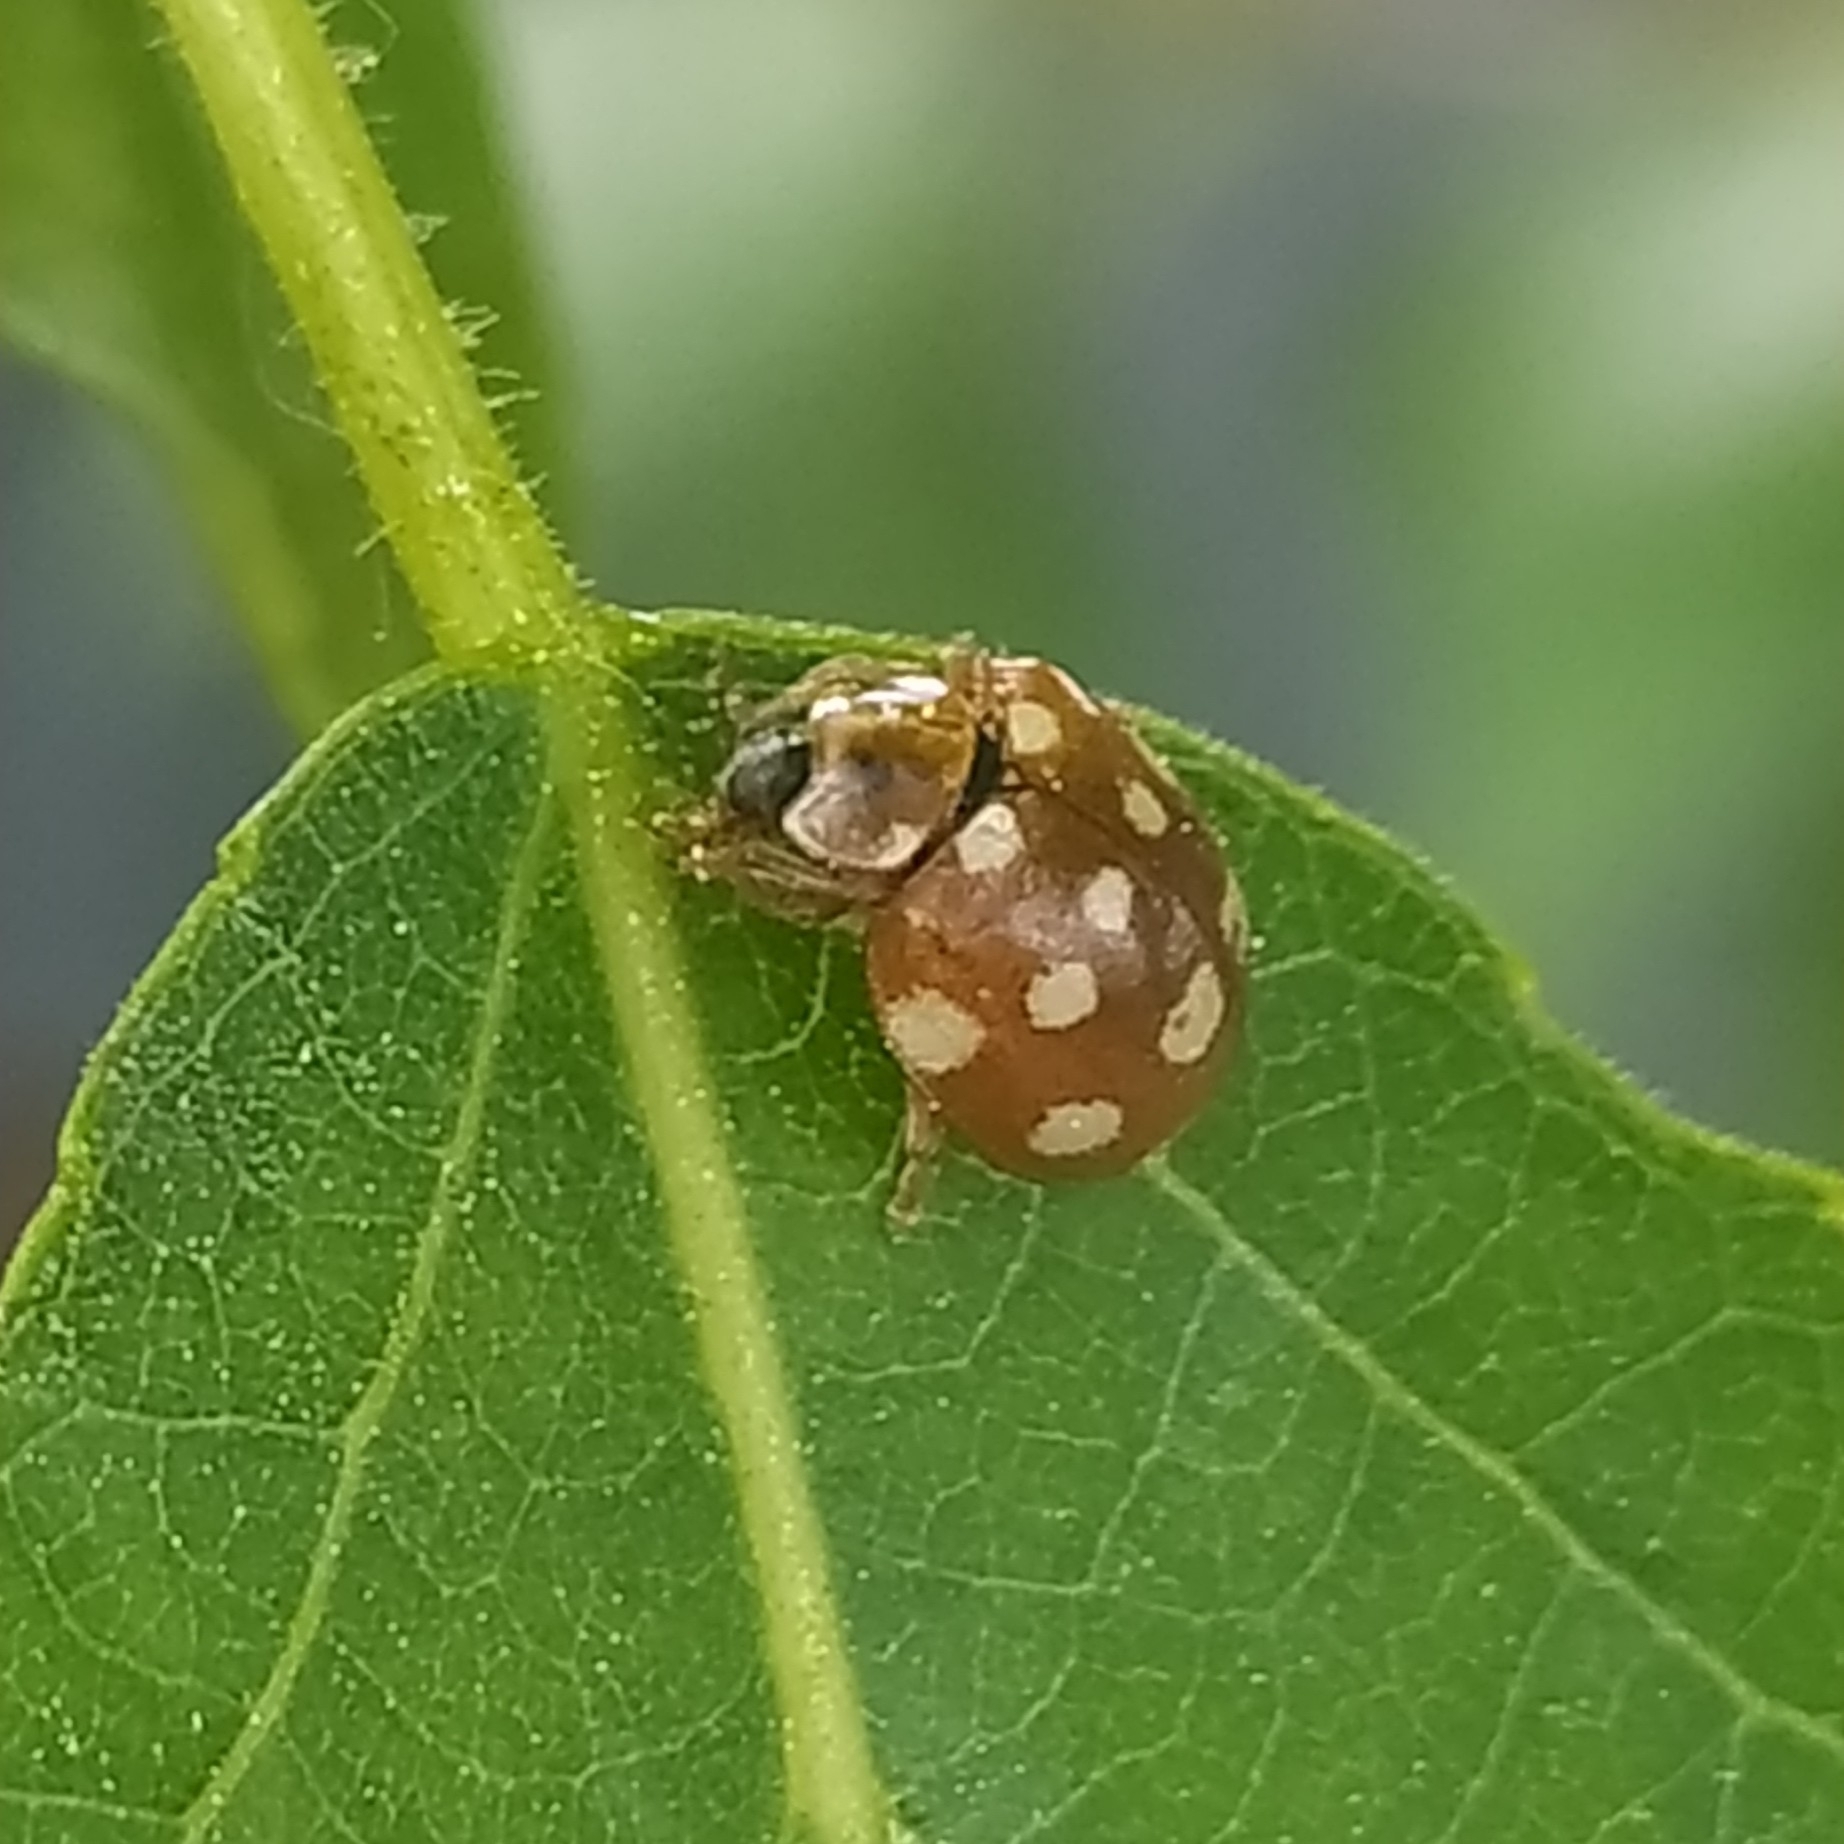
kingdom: Animalia
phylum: Arthropoda
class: Insecta
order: Coleoptera
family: Coccinellidae
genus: Calvia
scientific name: Calvia quatuordecimguttata
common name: Cream-spot ladybird
